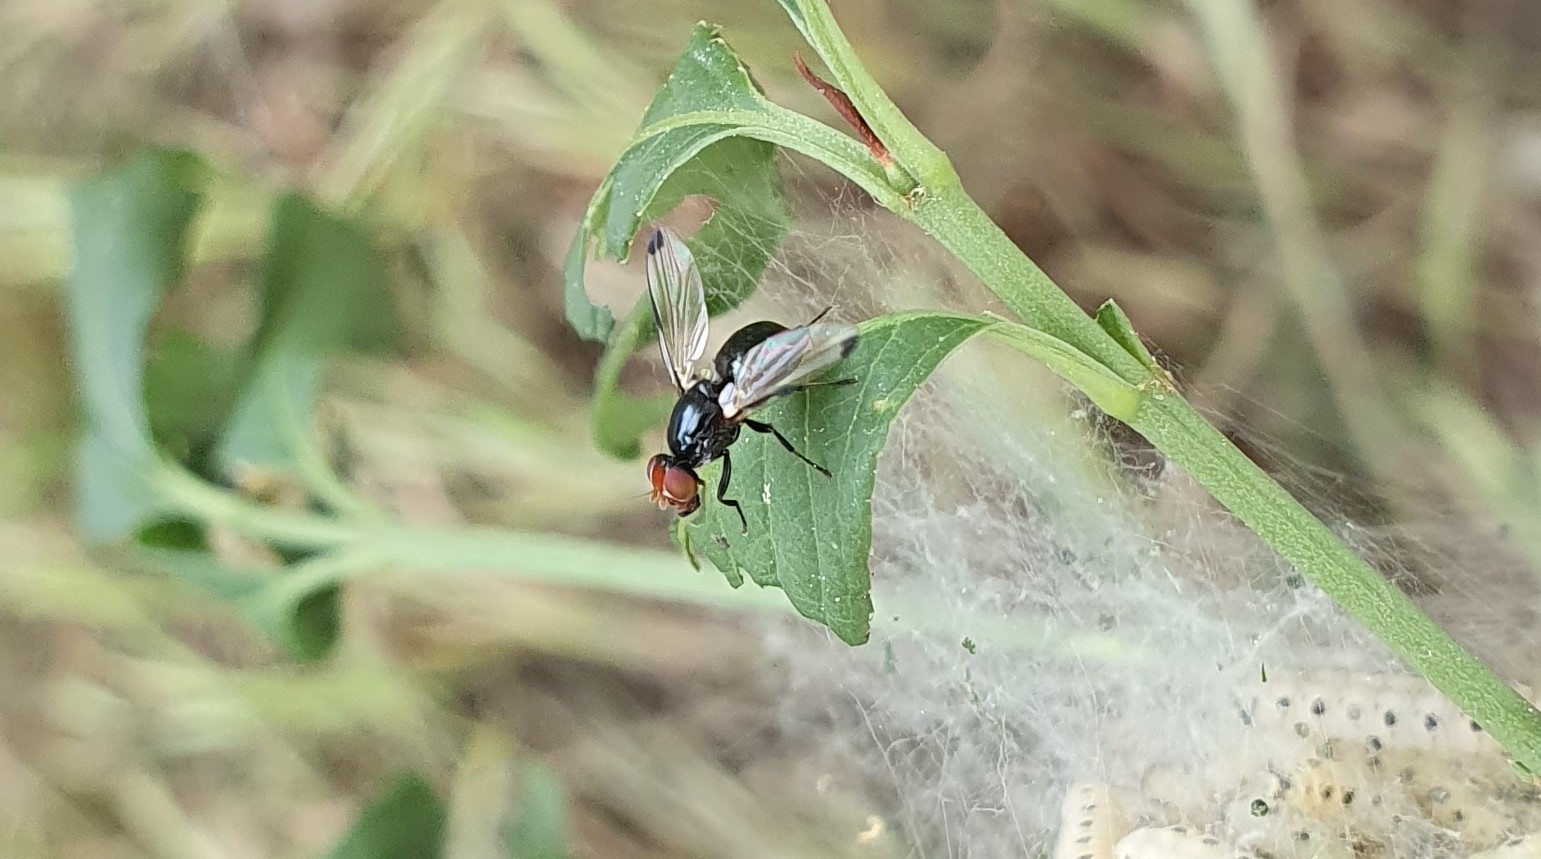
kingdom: Animalia
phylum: Arthropoda
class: Insecta
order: Diptera
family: Ulidiidae
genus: Seioptera
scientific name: Seioptera vibrans
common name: Dark-tipped wingwaver
